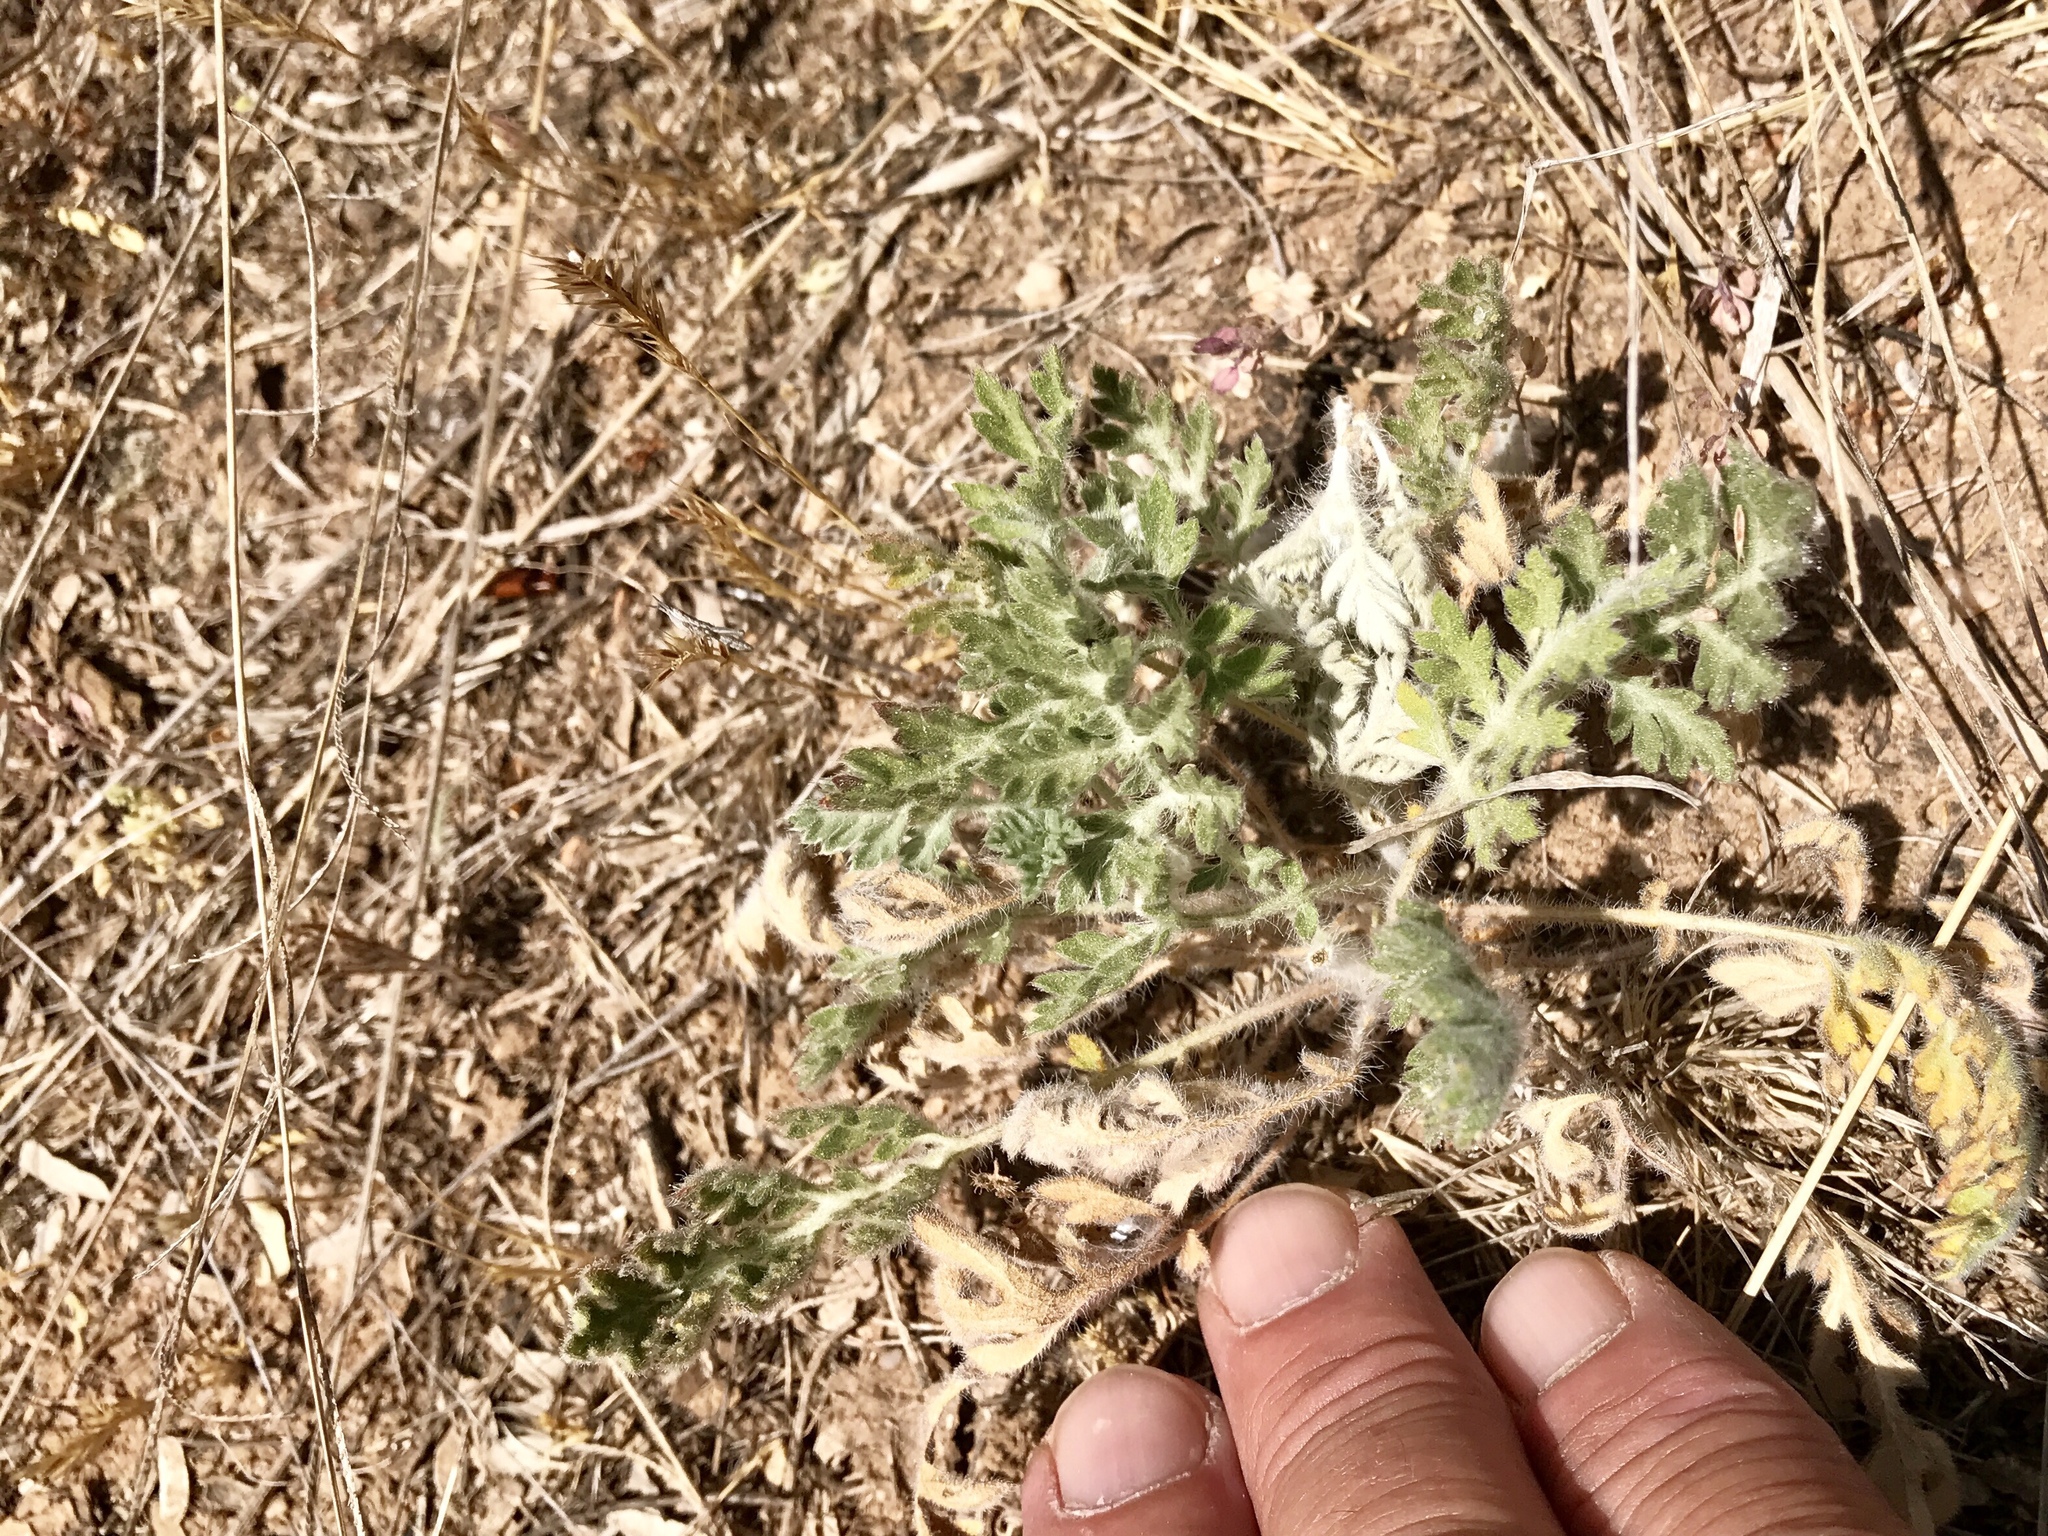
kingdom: Plantae
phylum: Tracheophyta
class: Magnoliopsida
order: Asterales
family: Asteraceae
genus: Ambrosia
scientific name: Ambrosia confertiflora
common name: Bur ragweed
